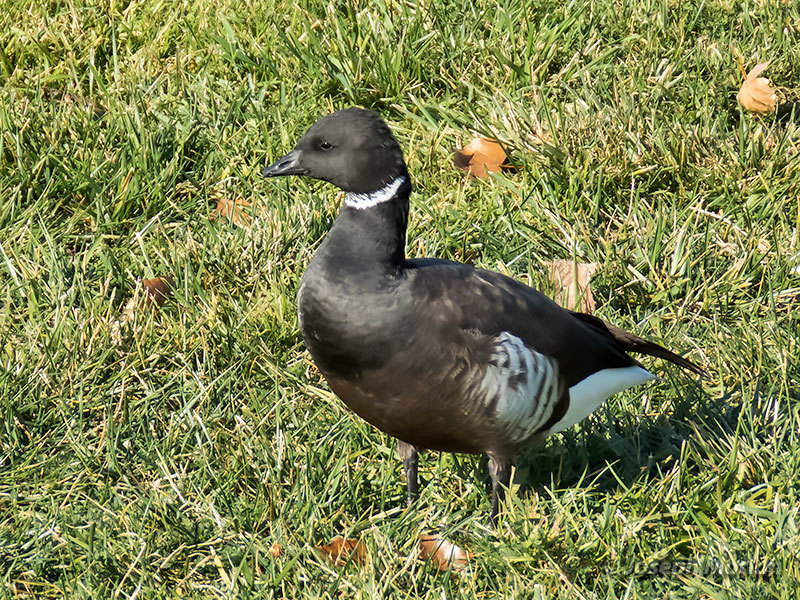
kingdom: Animalia
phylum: Chordata
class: Aves
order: Anseriformes
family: Anatidae
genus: Branta
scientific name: Branta bernicla
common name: Brant goose
